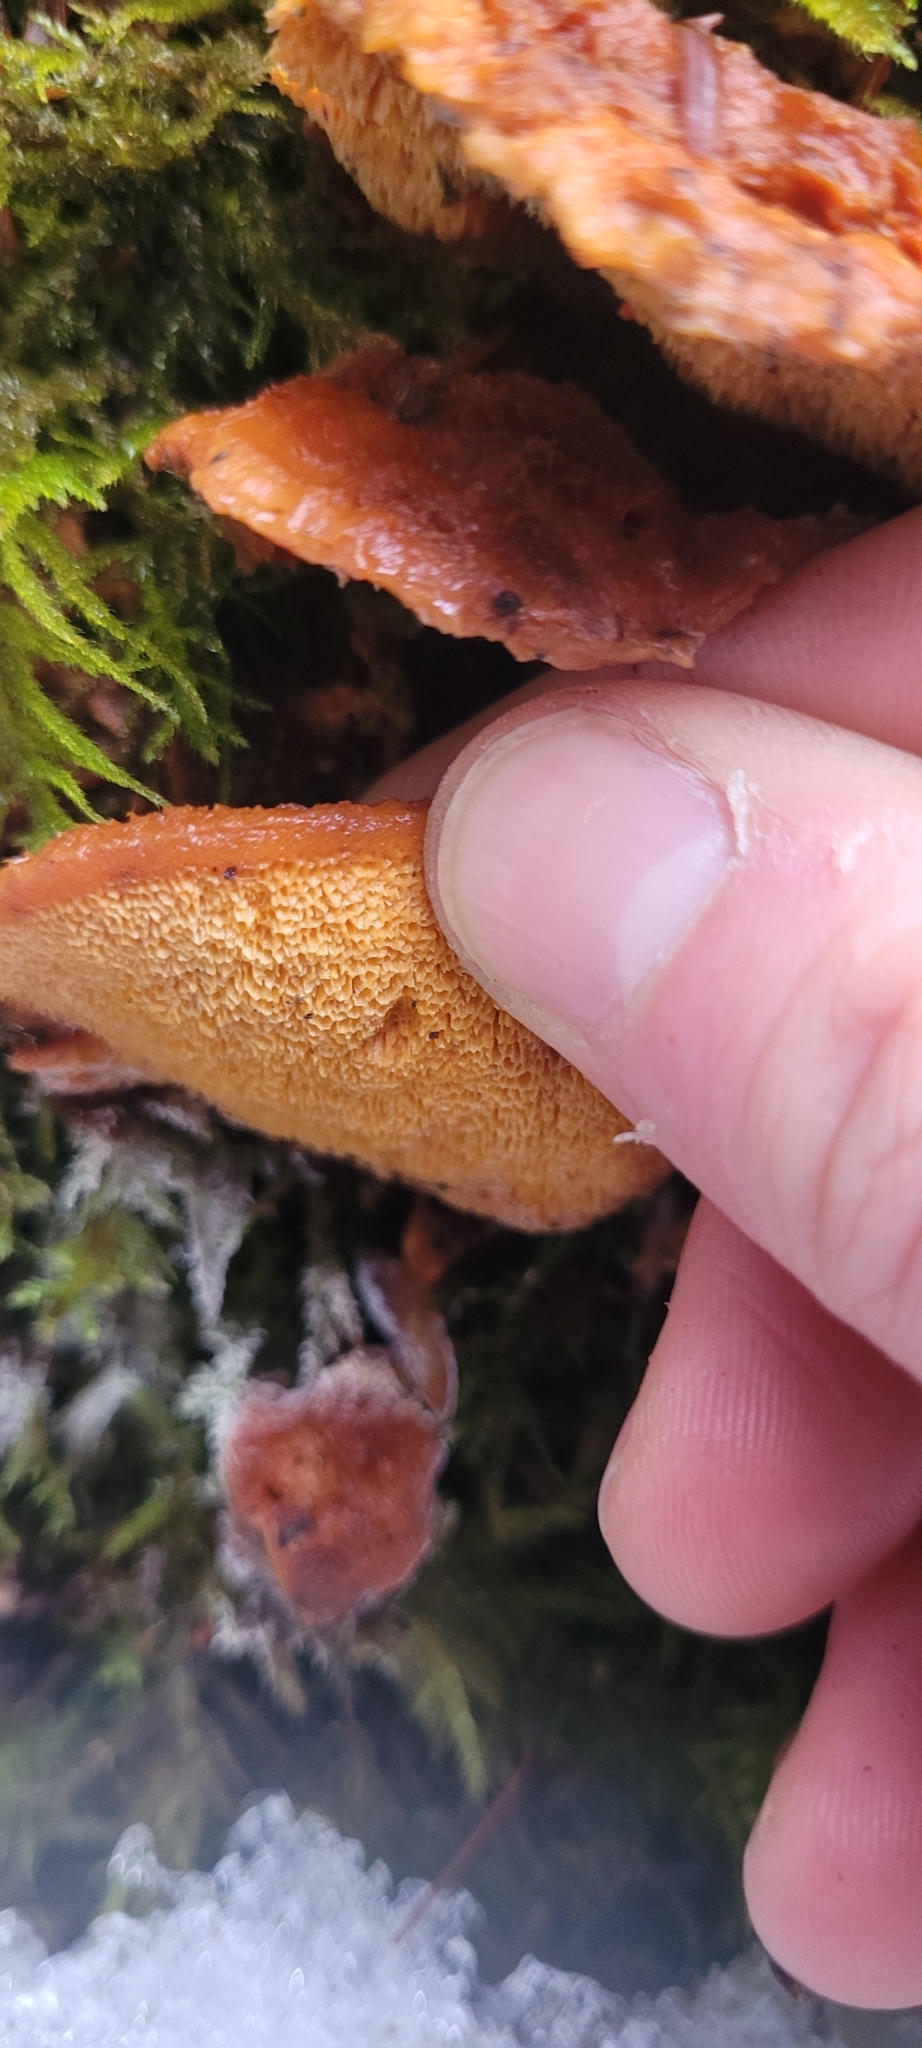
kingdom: Fungi
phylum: Basidiomycota
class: Agaricomycetes
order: Polyporales
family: Pycnoporellaceae
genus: Pycnoporellus
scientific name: Pycnoporellus fulgens
